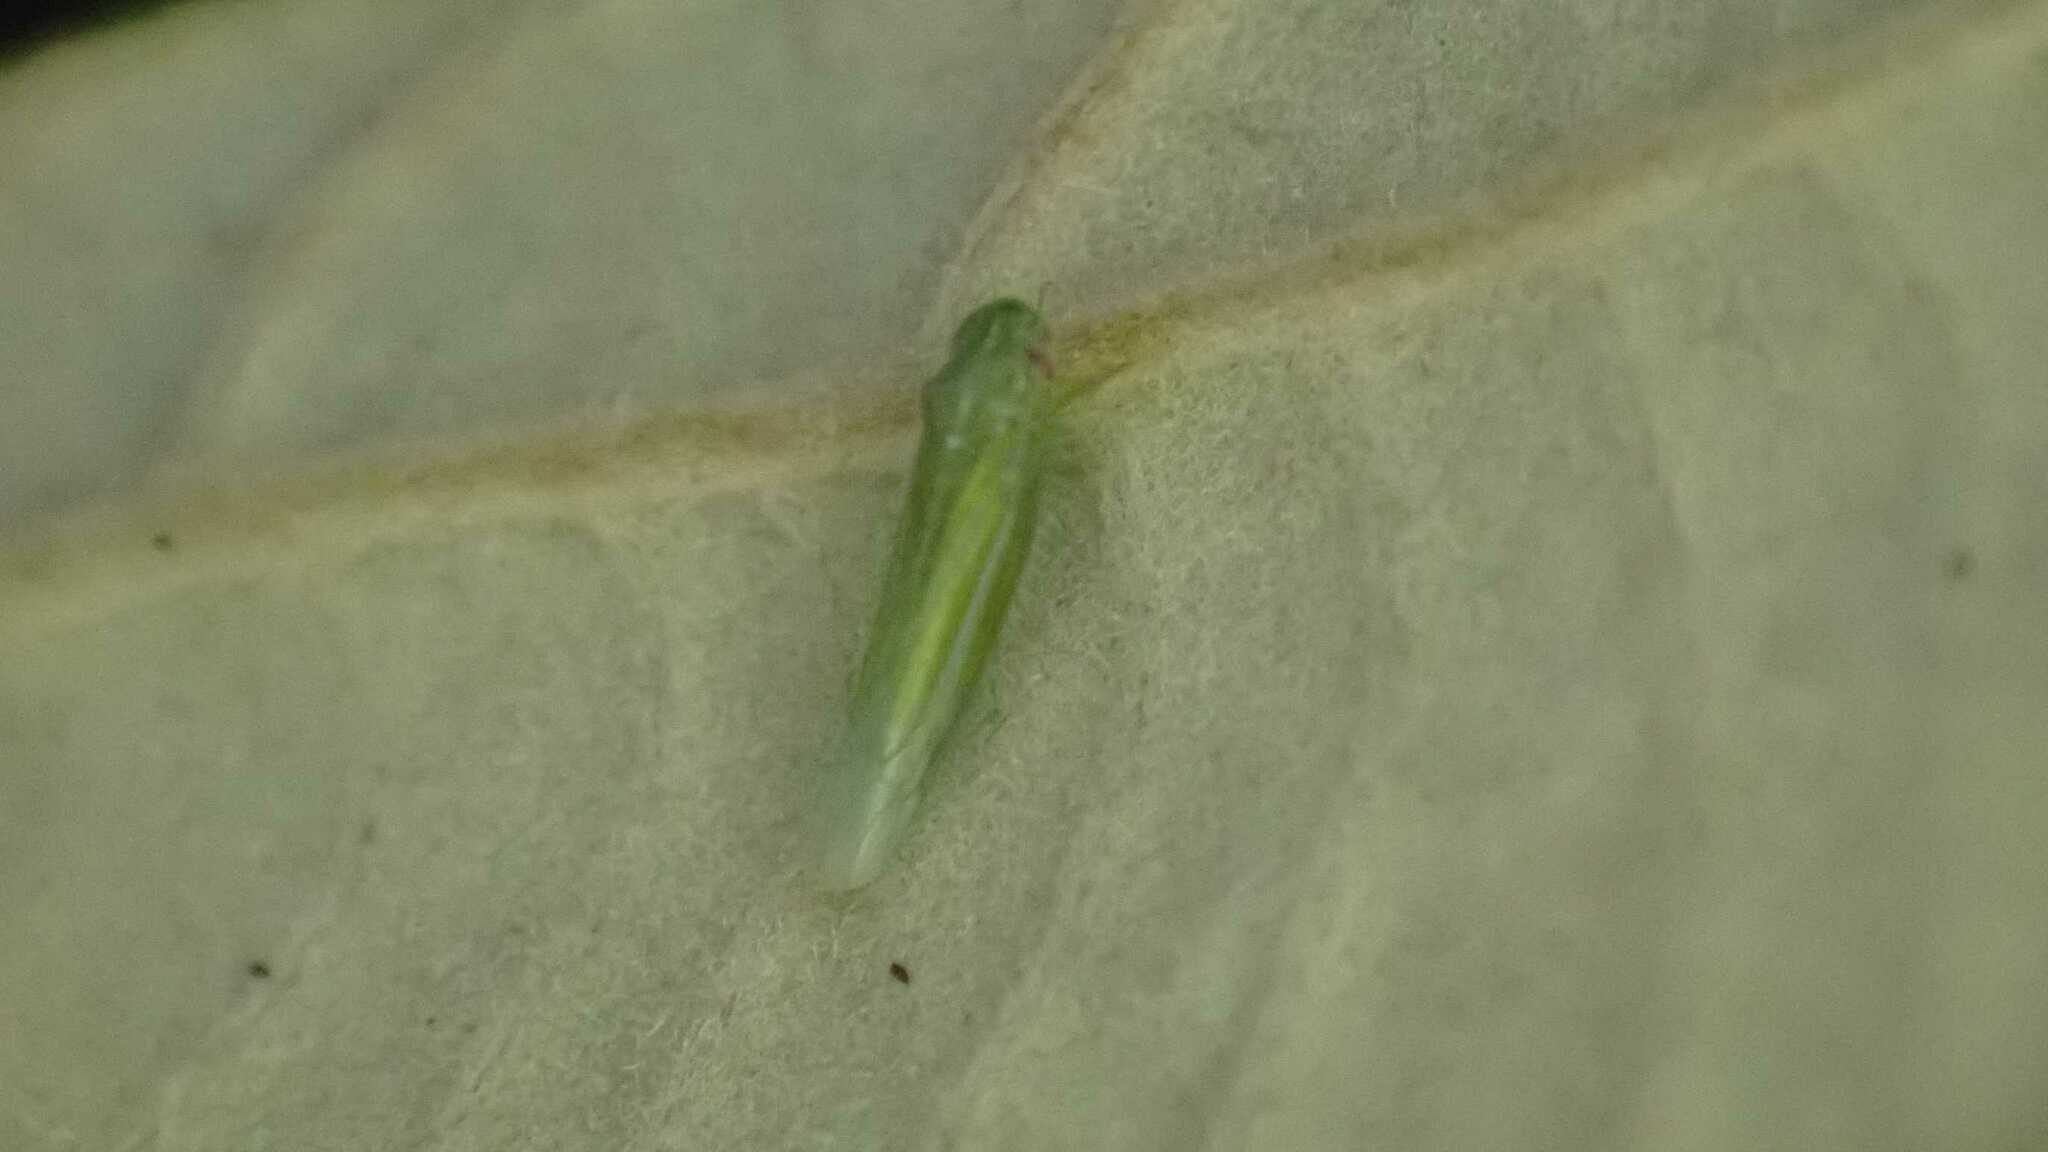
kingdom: Animalia
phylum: Arthropoda
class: Insecta
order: Hemiptera
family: Cicadellidae
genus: Hebata
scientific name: Hebata vitis
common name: The smaller green leafhopper
